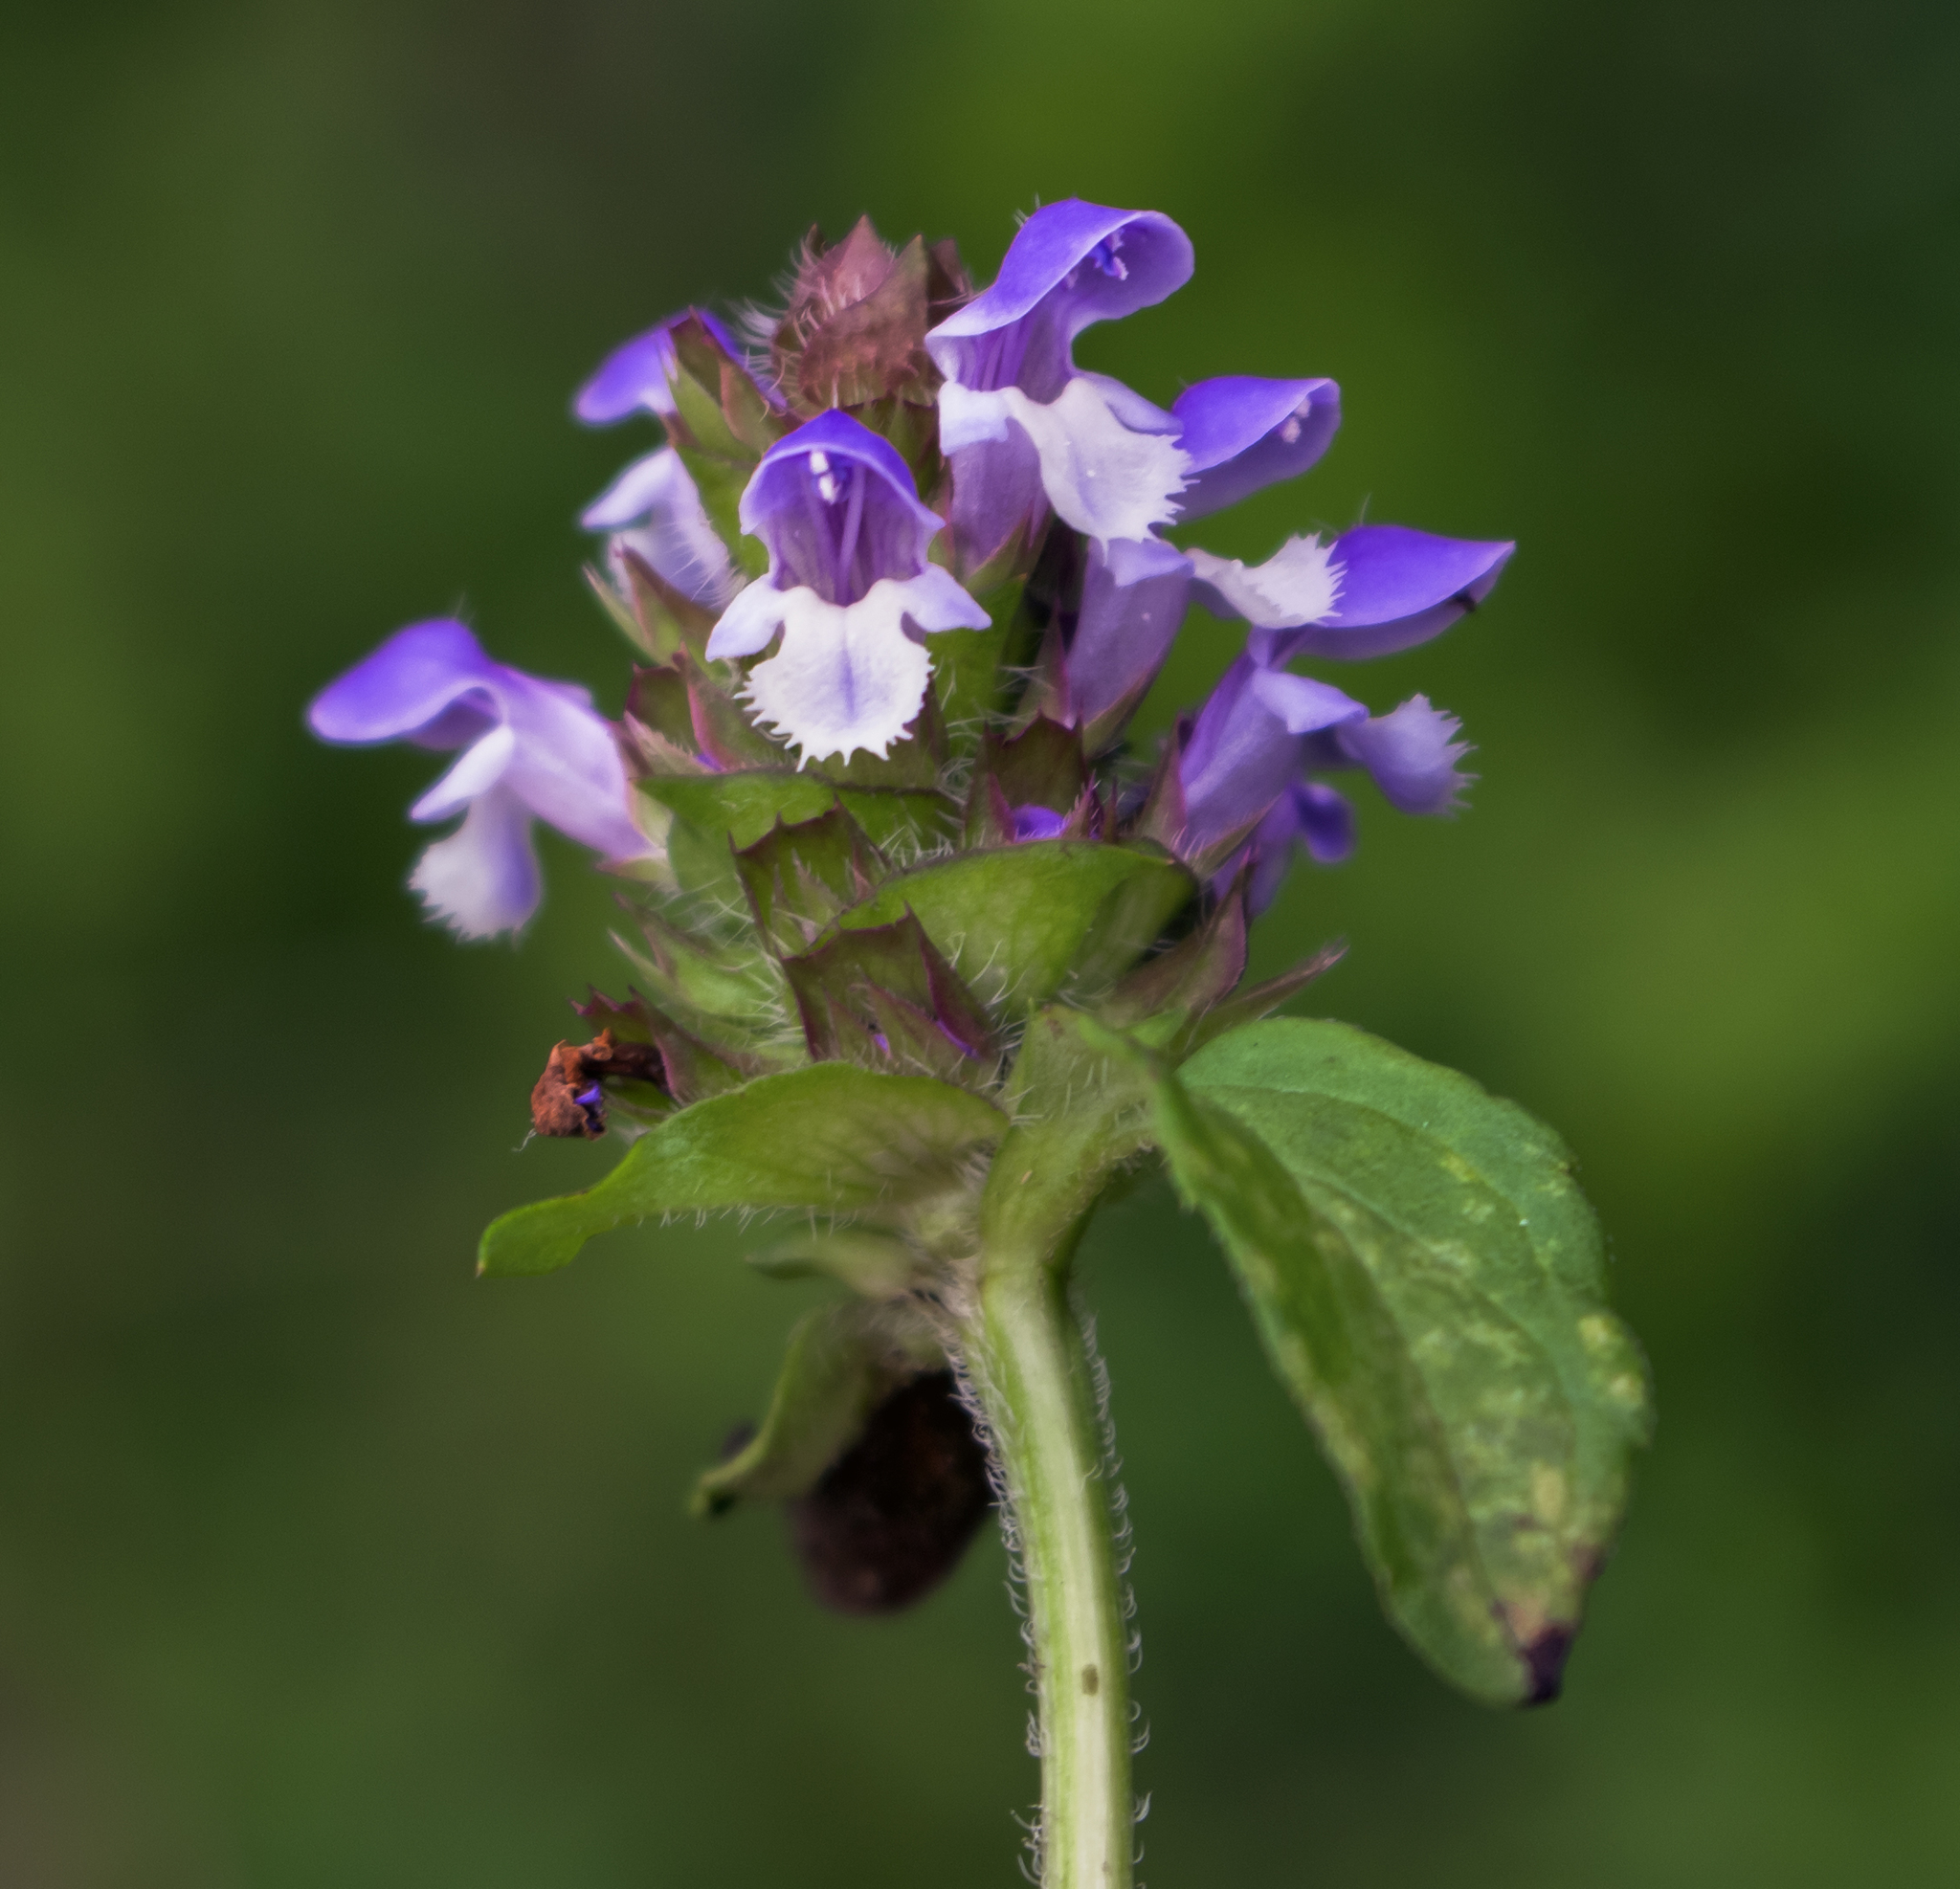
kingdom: Plantae
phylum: Tracheophyta
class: Magnoliopsida
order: Lamiales
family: Lamiaceae
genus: Prunella
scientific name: Prunella vulgaris
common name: Heal-all
